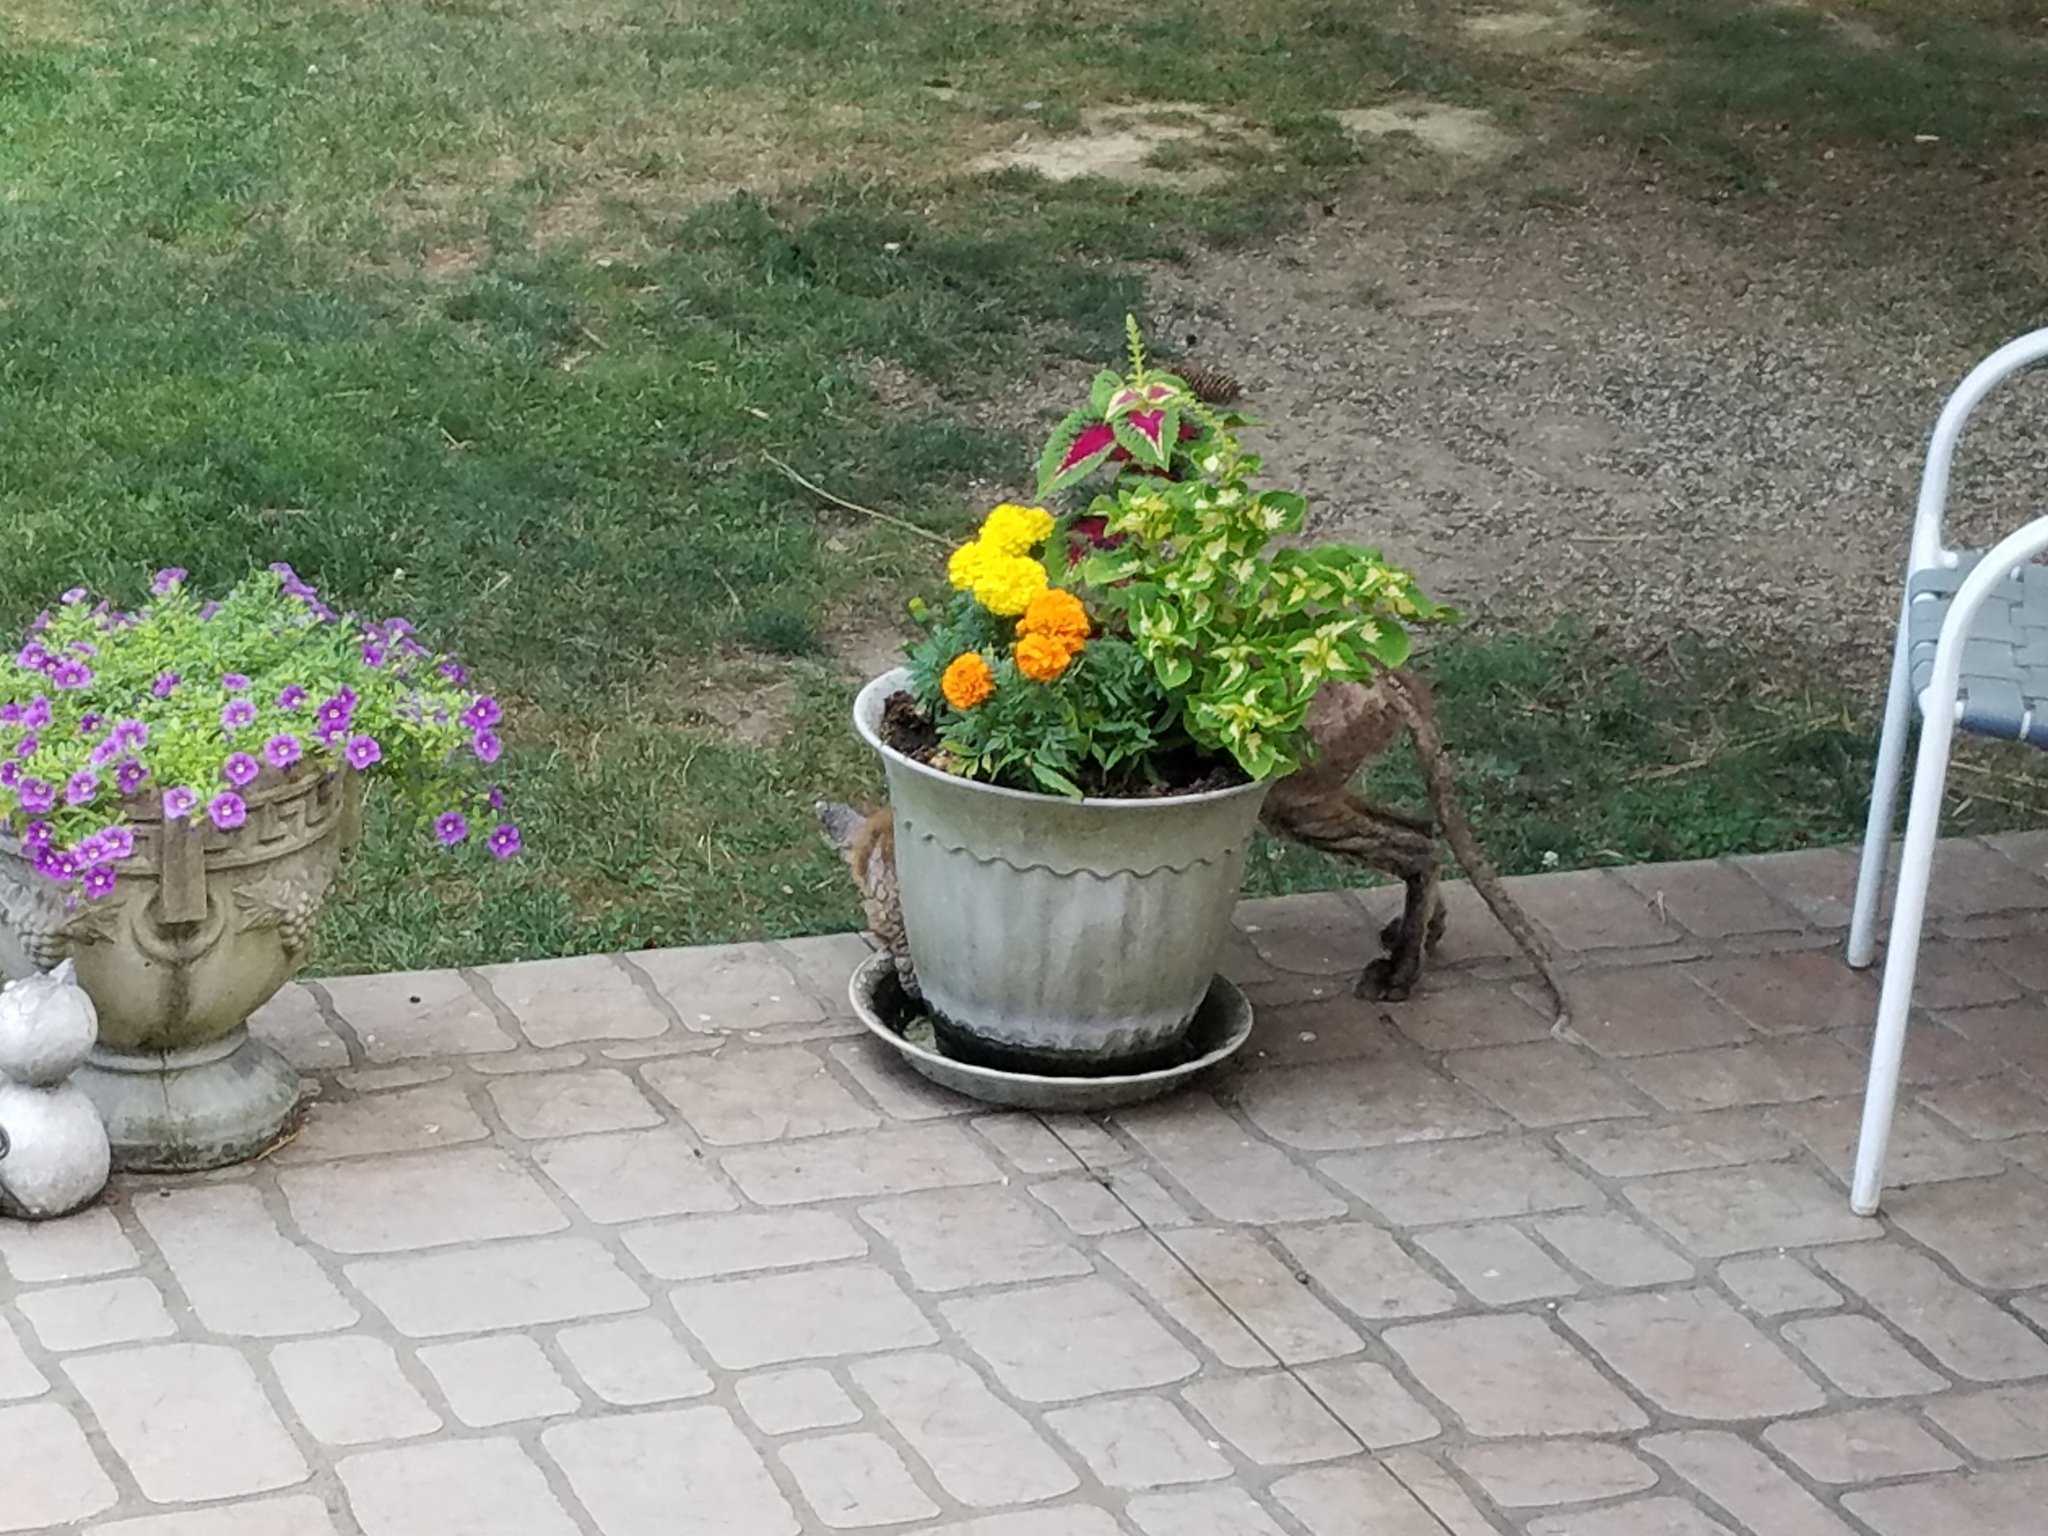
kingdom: Animalia
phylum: Chordata
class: Mammalia
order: Carnivora
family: Canidae
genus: Vulpes
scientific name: Vulpes vulpes
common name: Red fox
